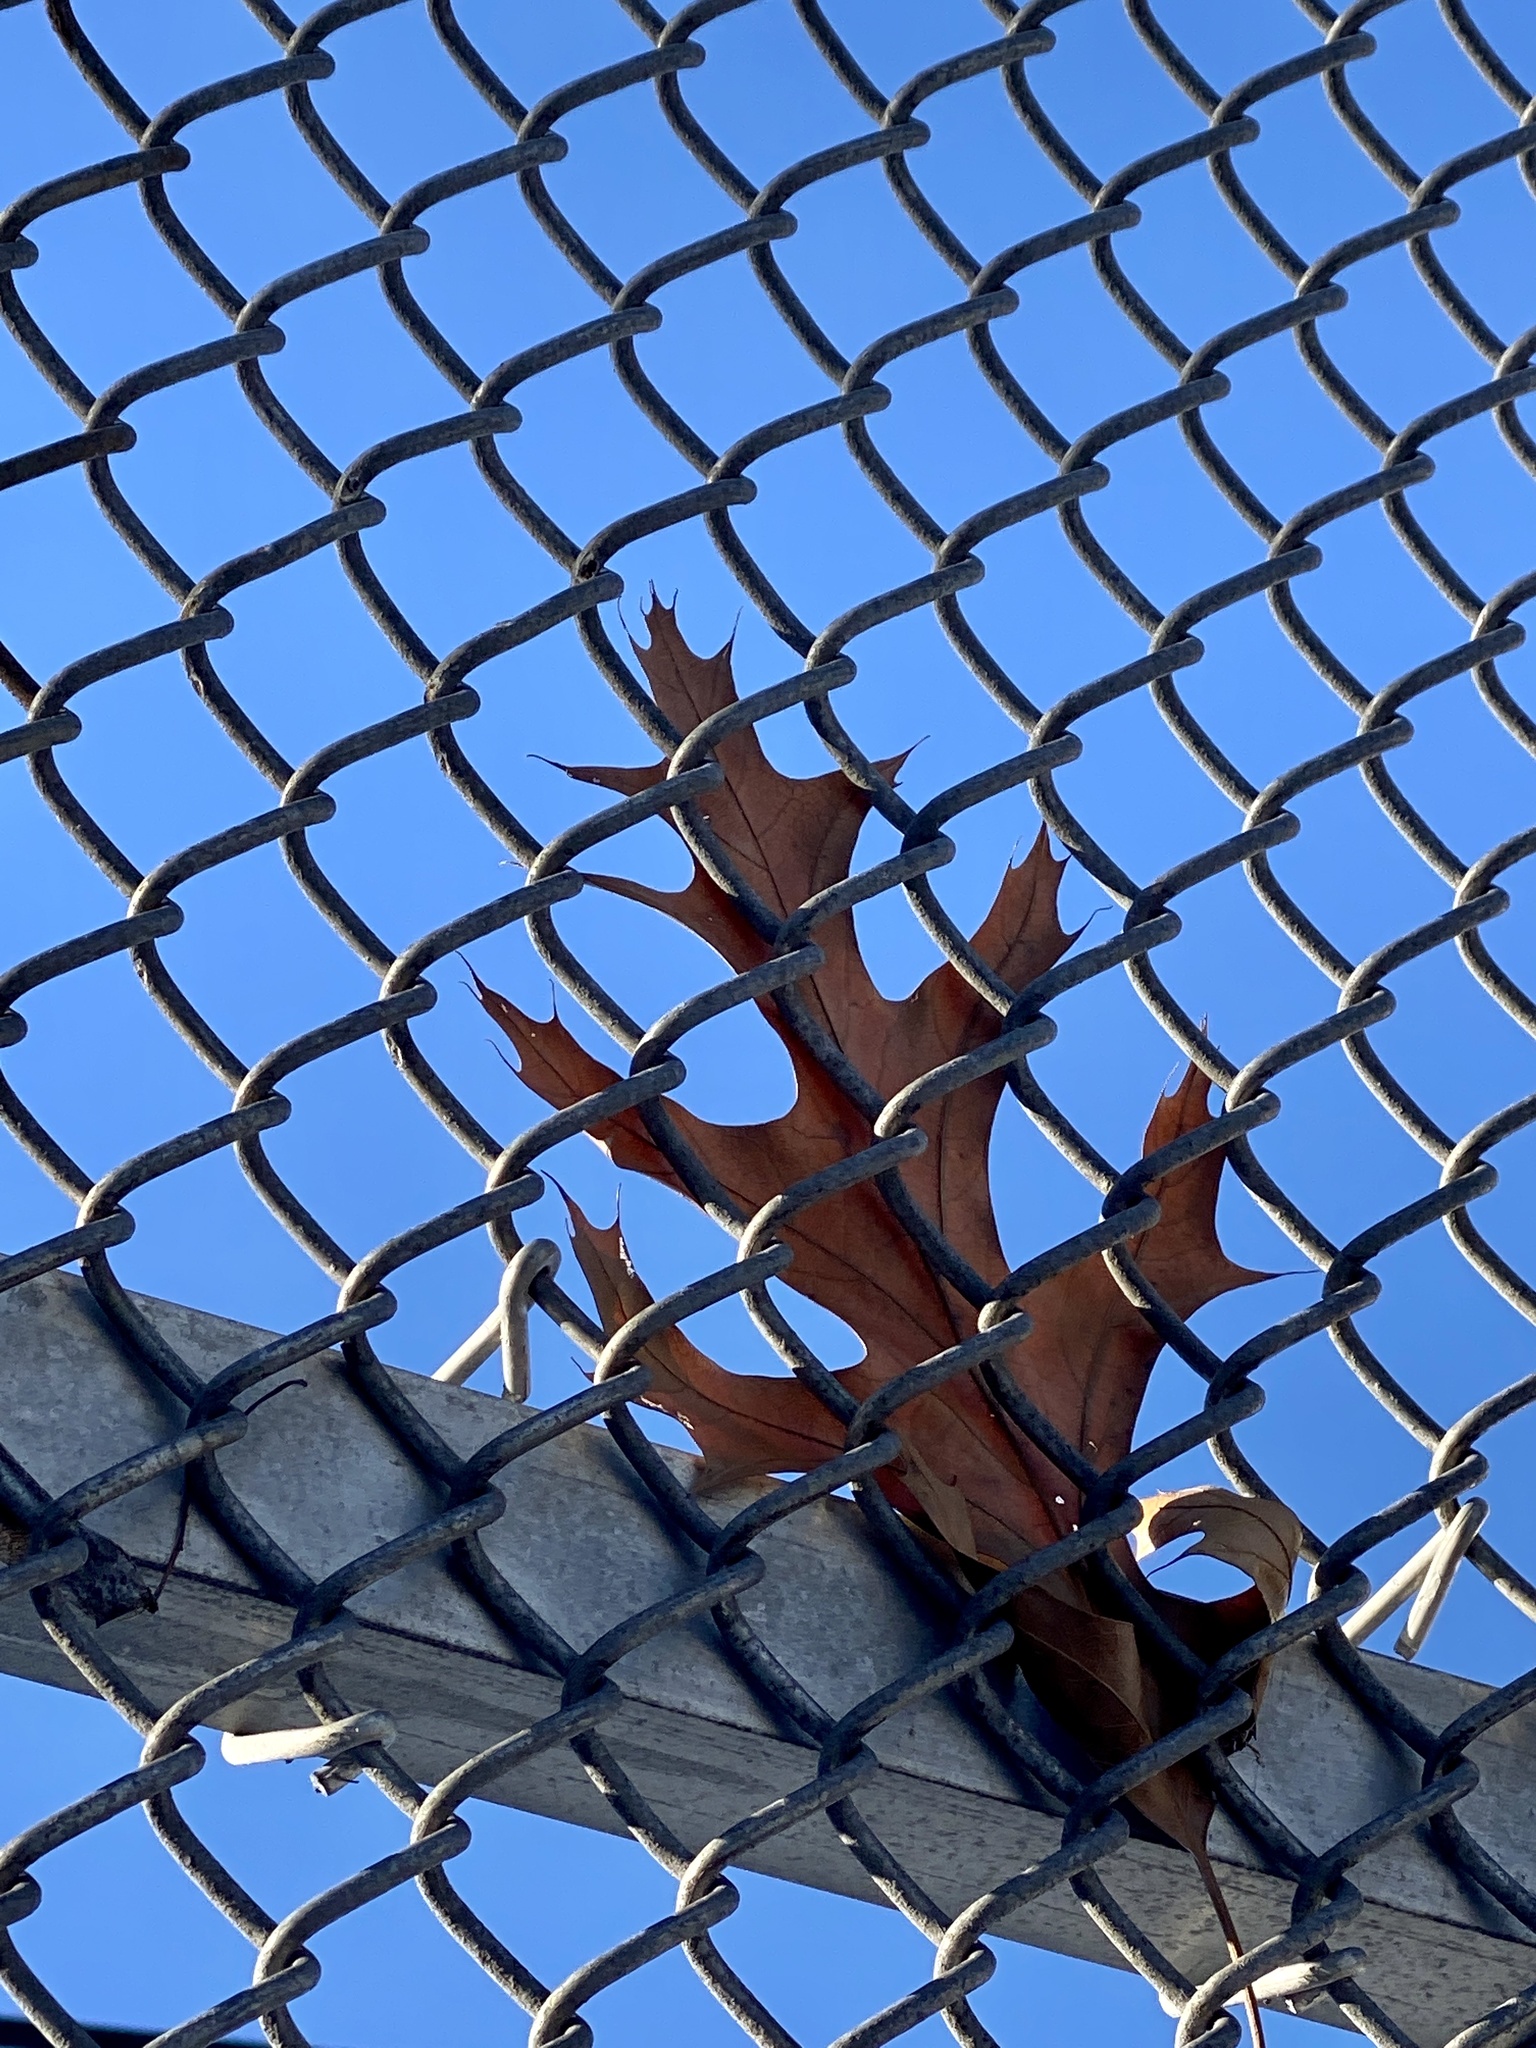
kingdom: Plantae
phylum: Tracheophyta
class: Magnoliopsida
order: Fagales
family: Fagaceae
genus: Quercus
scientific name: Quercus
